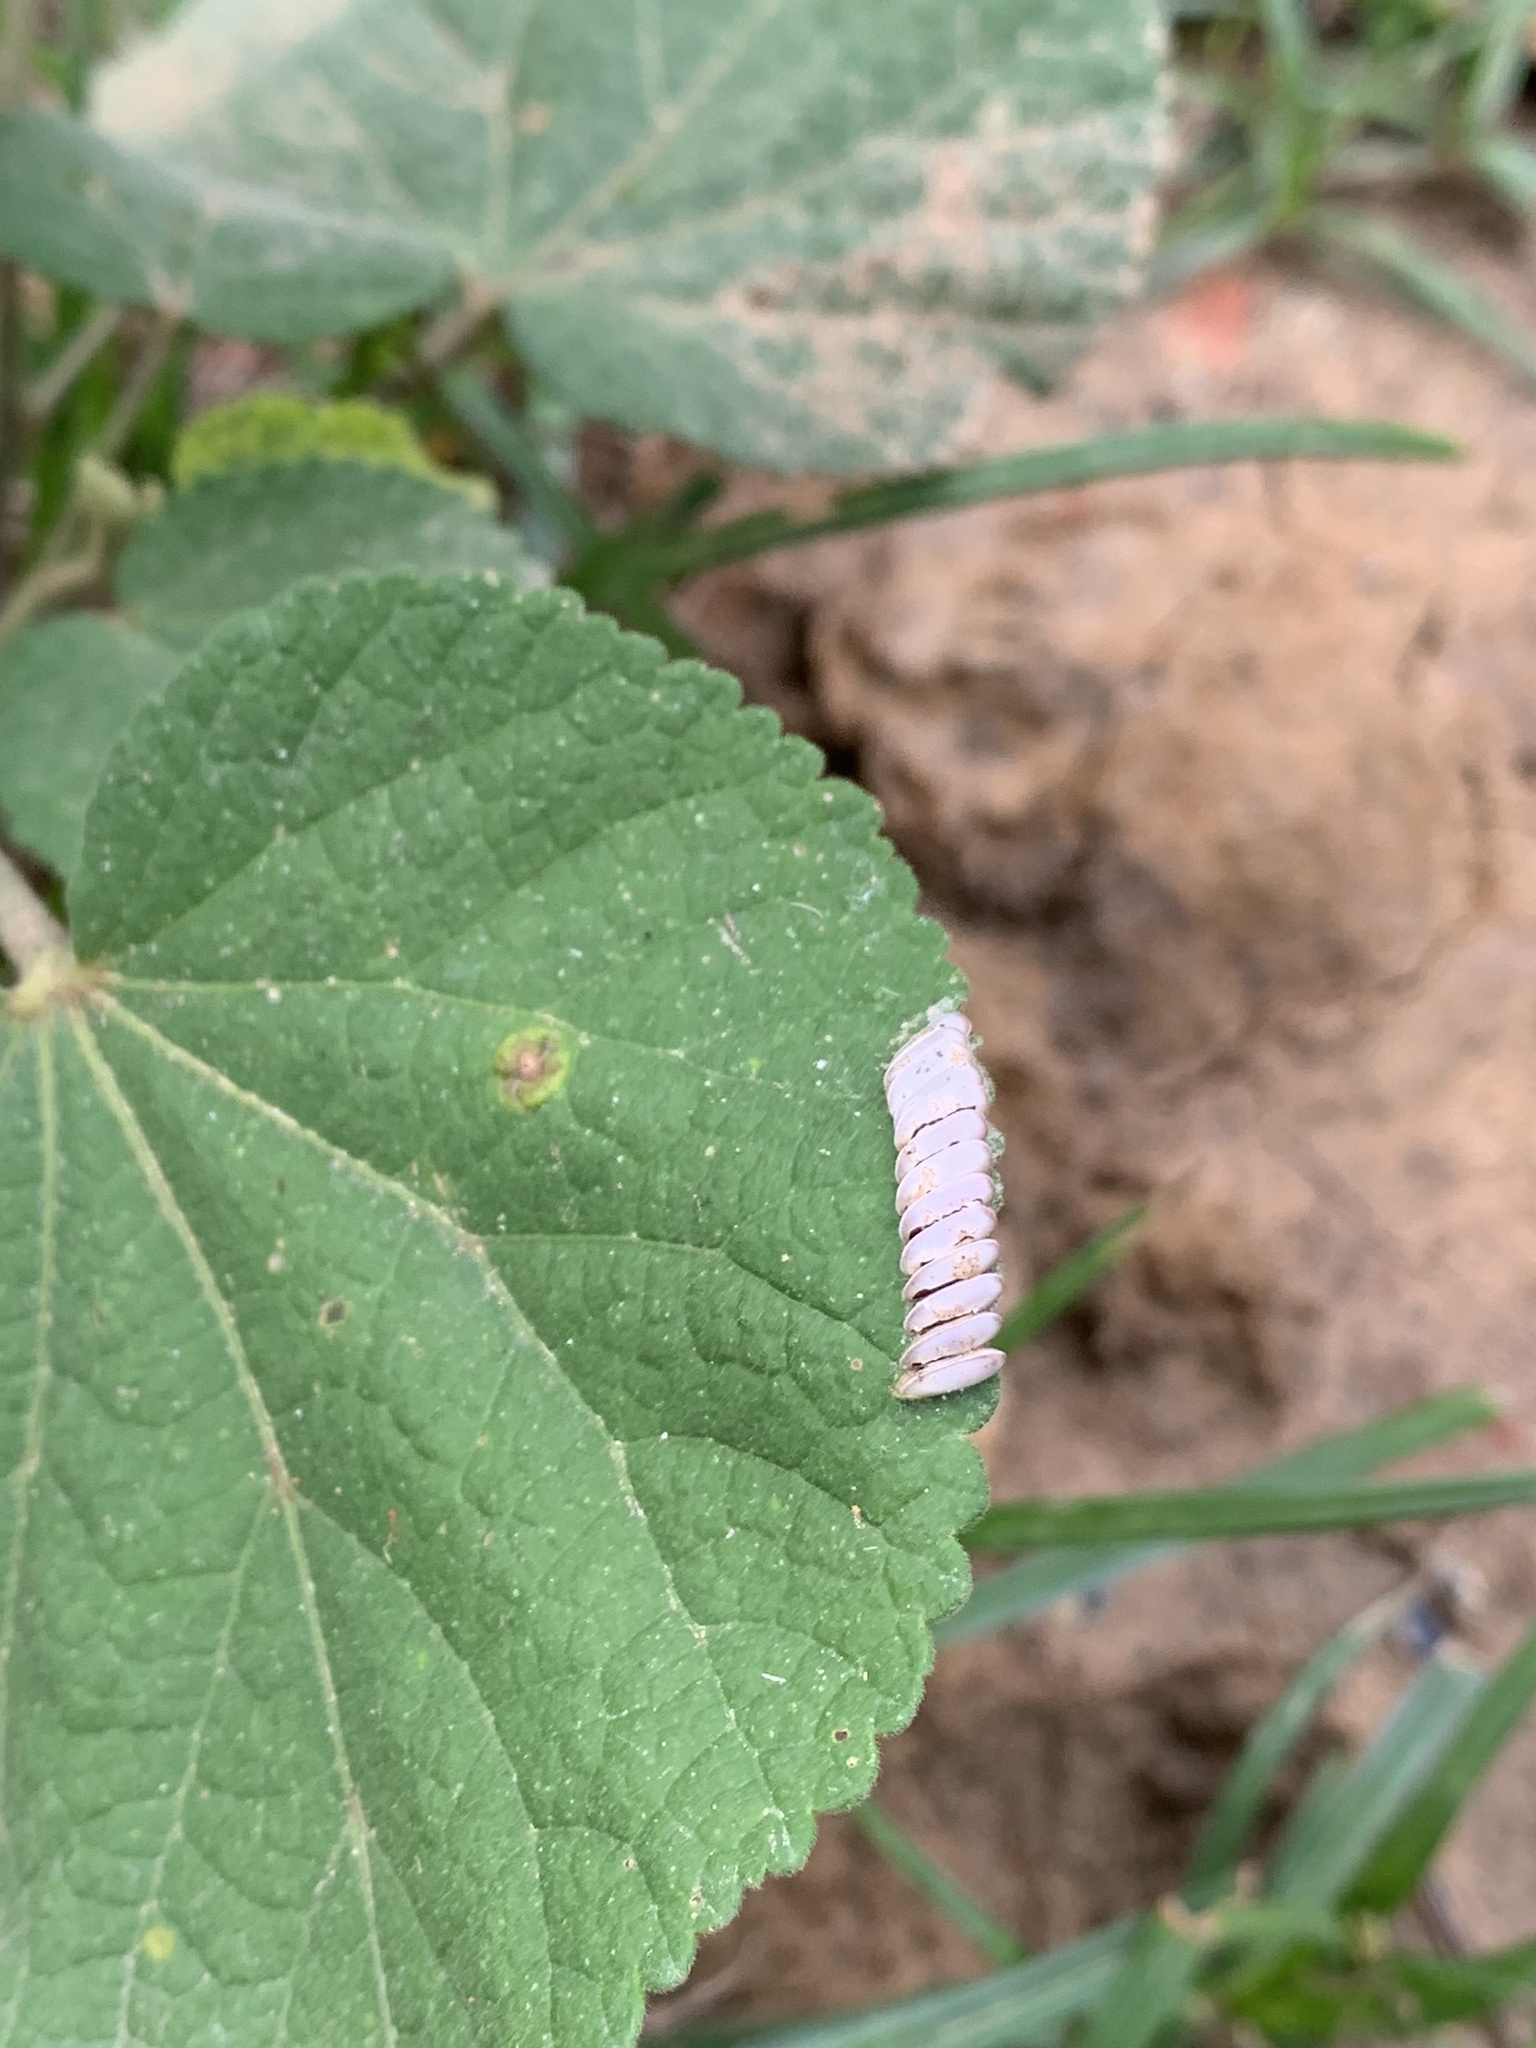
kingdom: Animalia
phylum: Arthropoda
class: Insecta
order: Lepidoptera
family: Erebidae
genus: Diphthera
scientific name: Diphthera festiva
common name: Hieroglyphic moth
